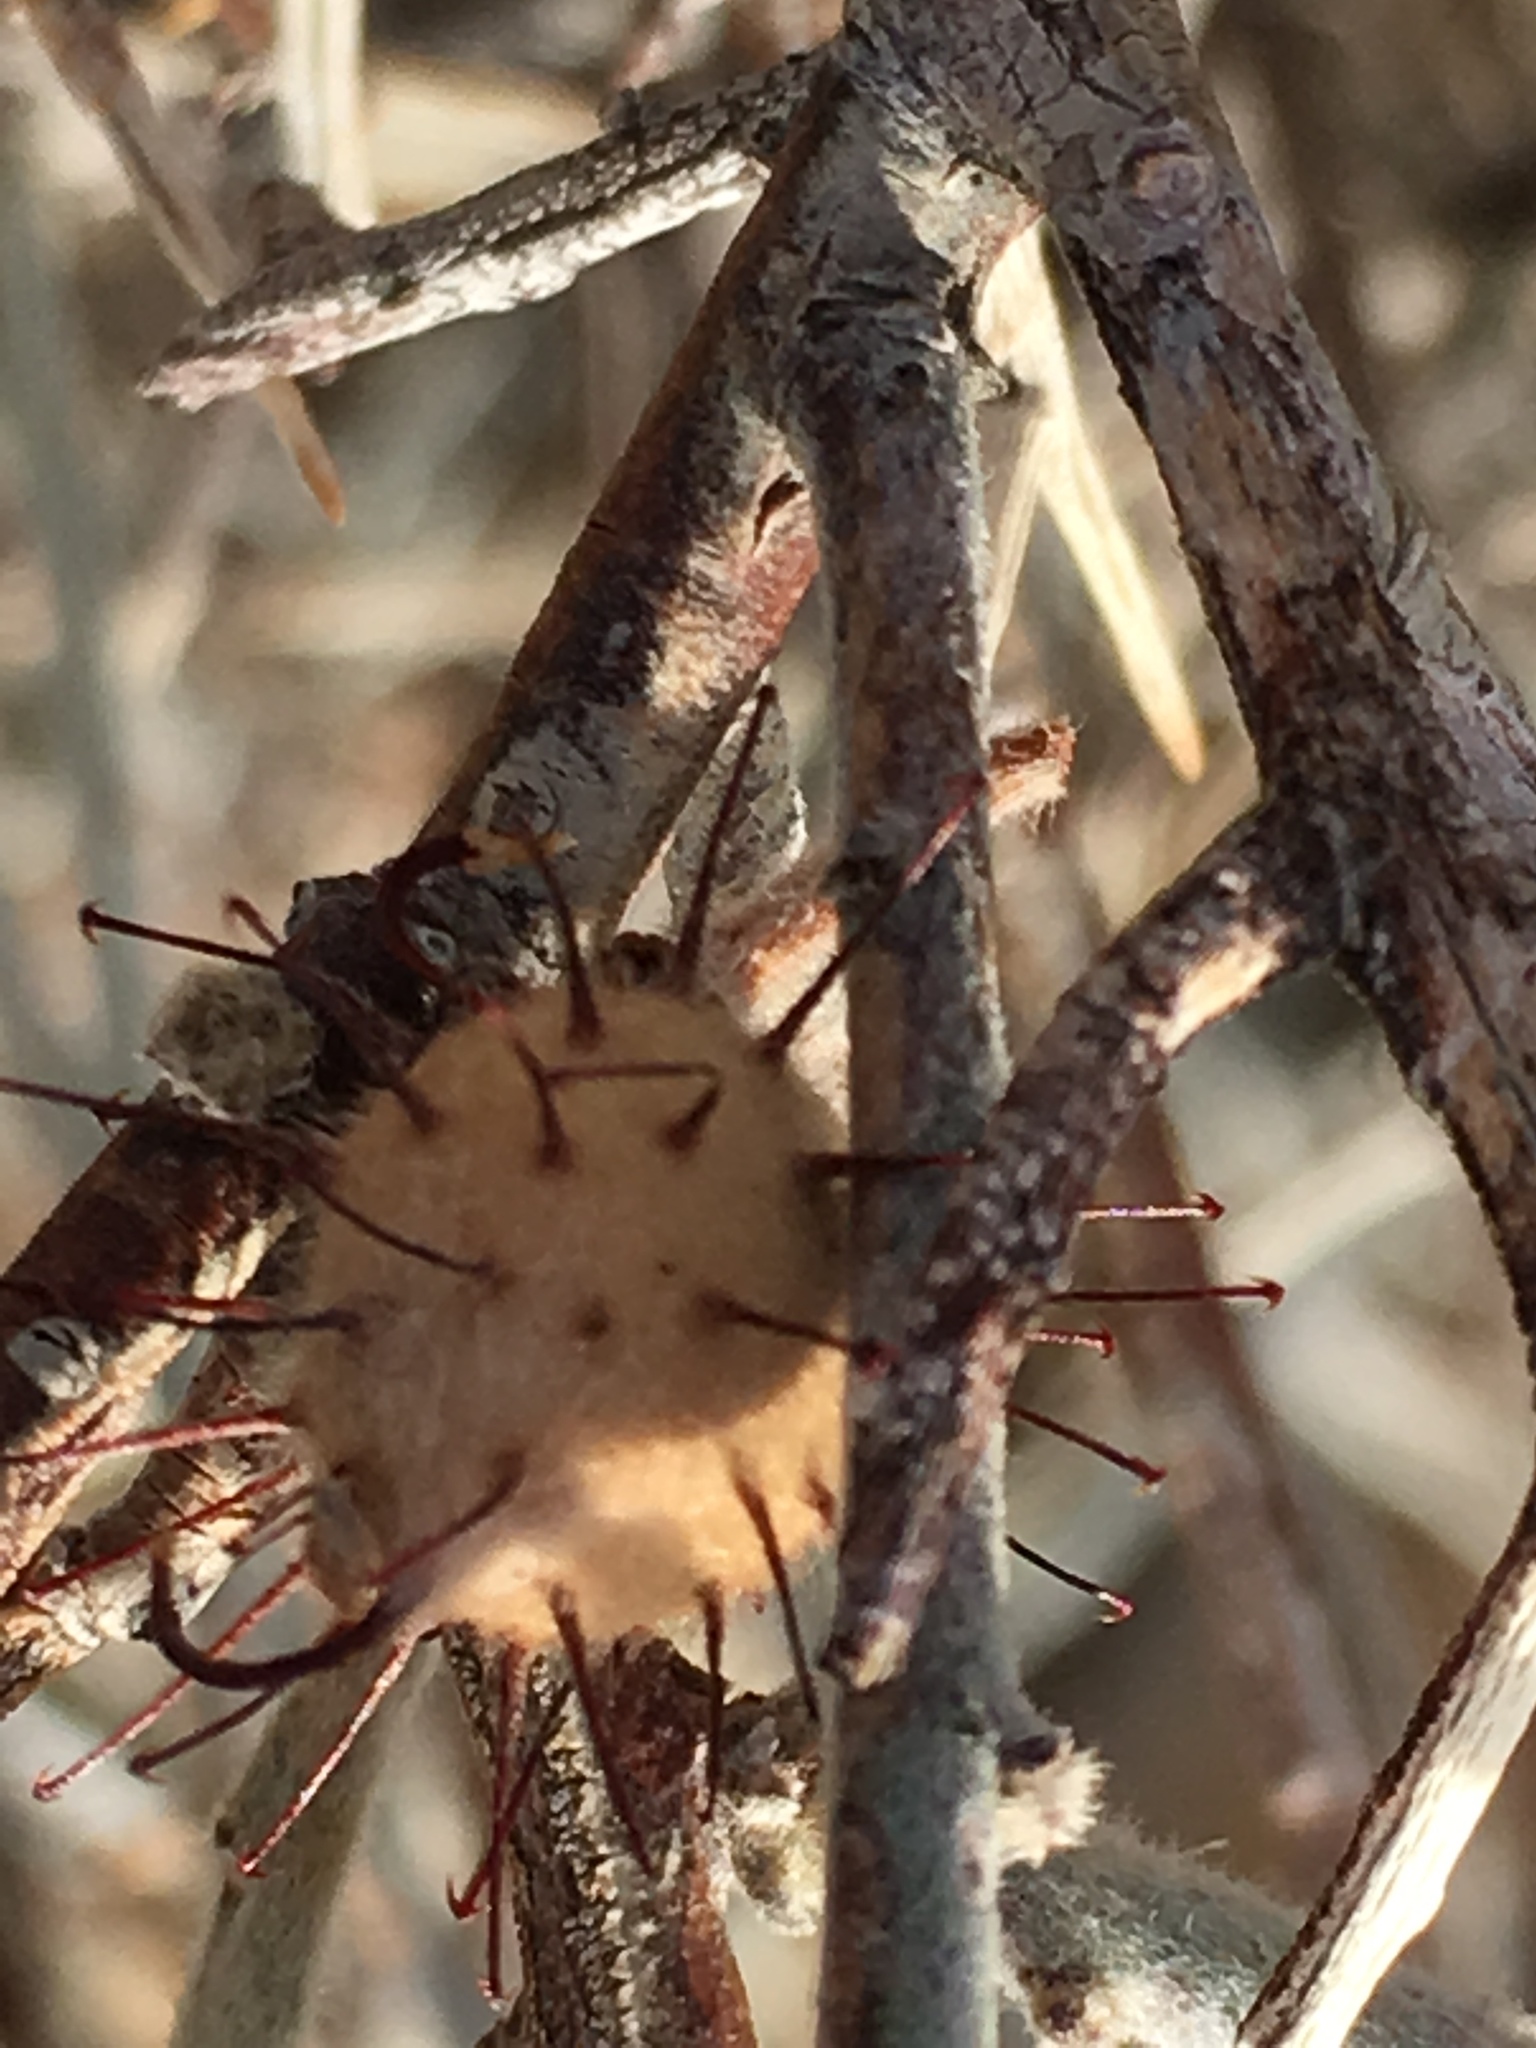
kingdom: Plantae
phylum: Tracheophyta
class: Magnoliopsida
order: Zygophyllales
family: Krameriaceae
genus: Krameria
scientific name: Krameria bicolor
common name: White ratany
